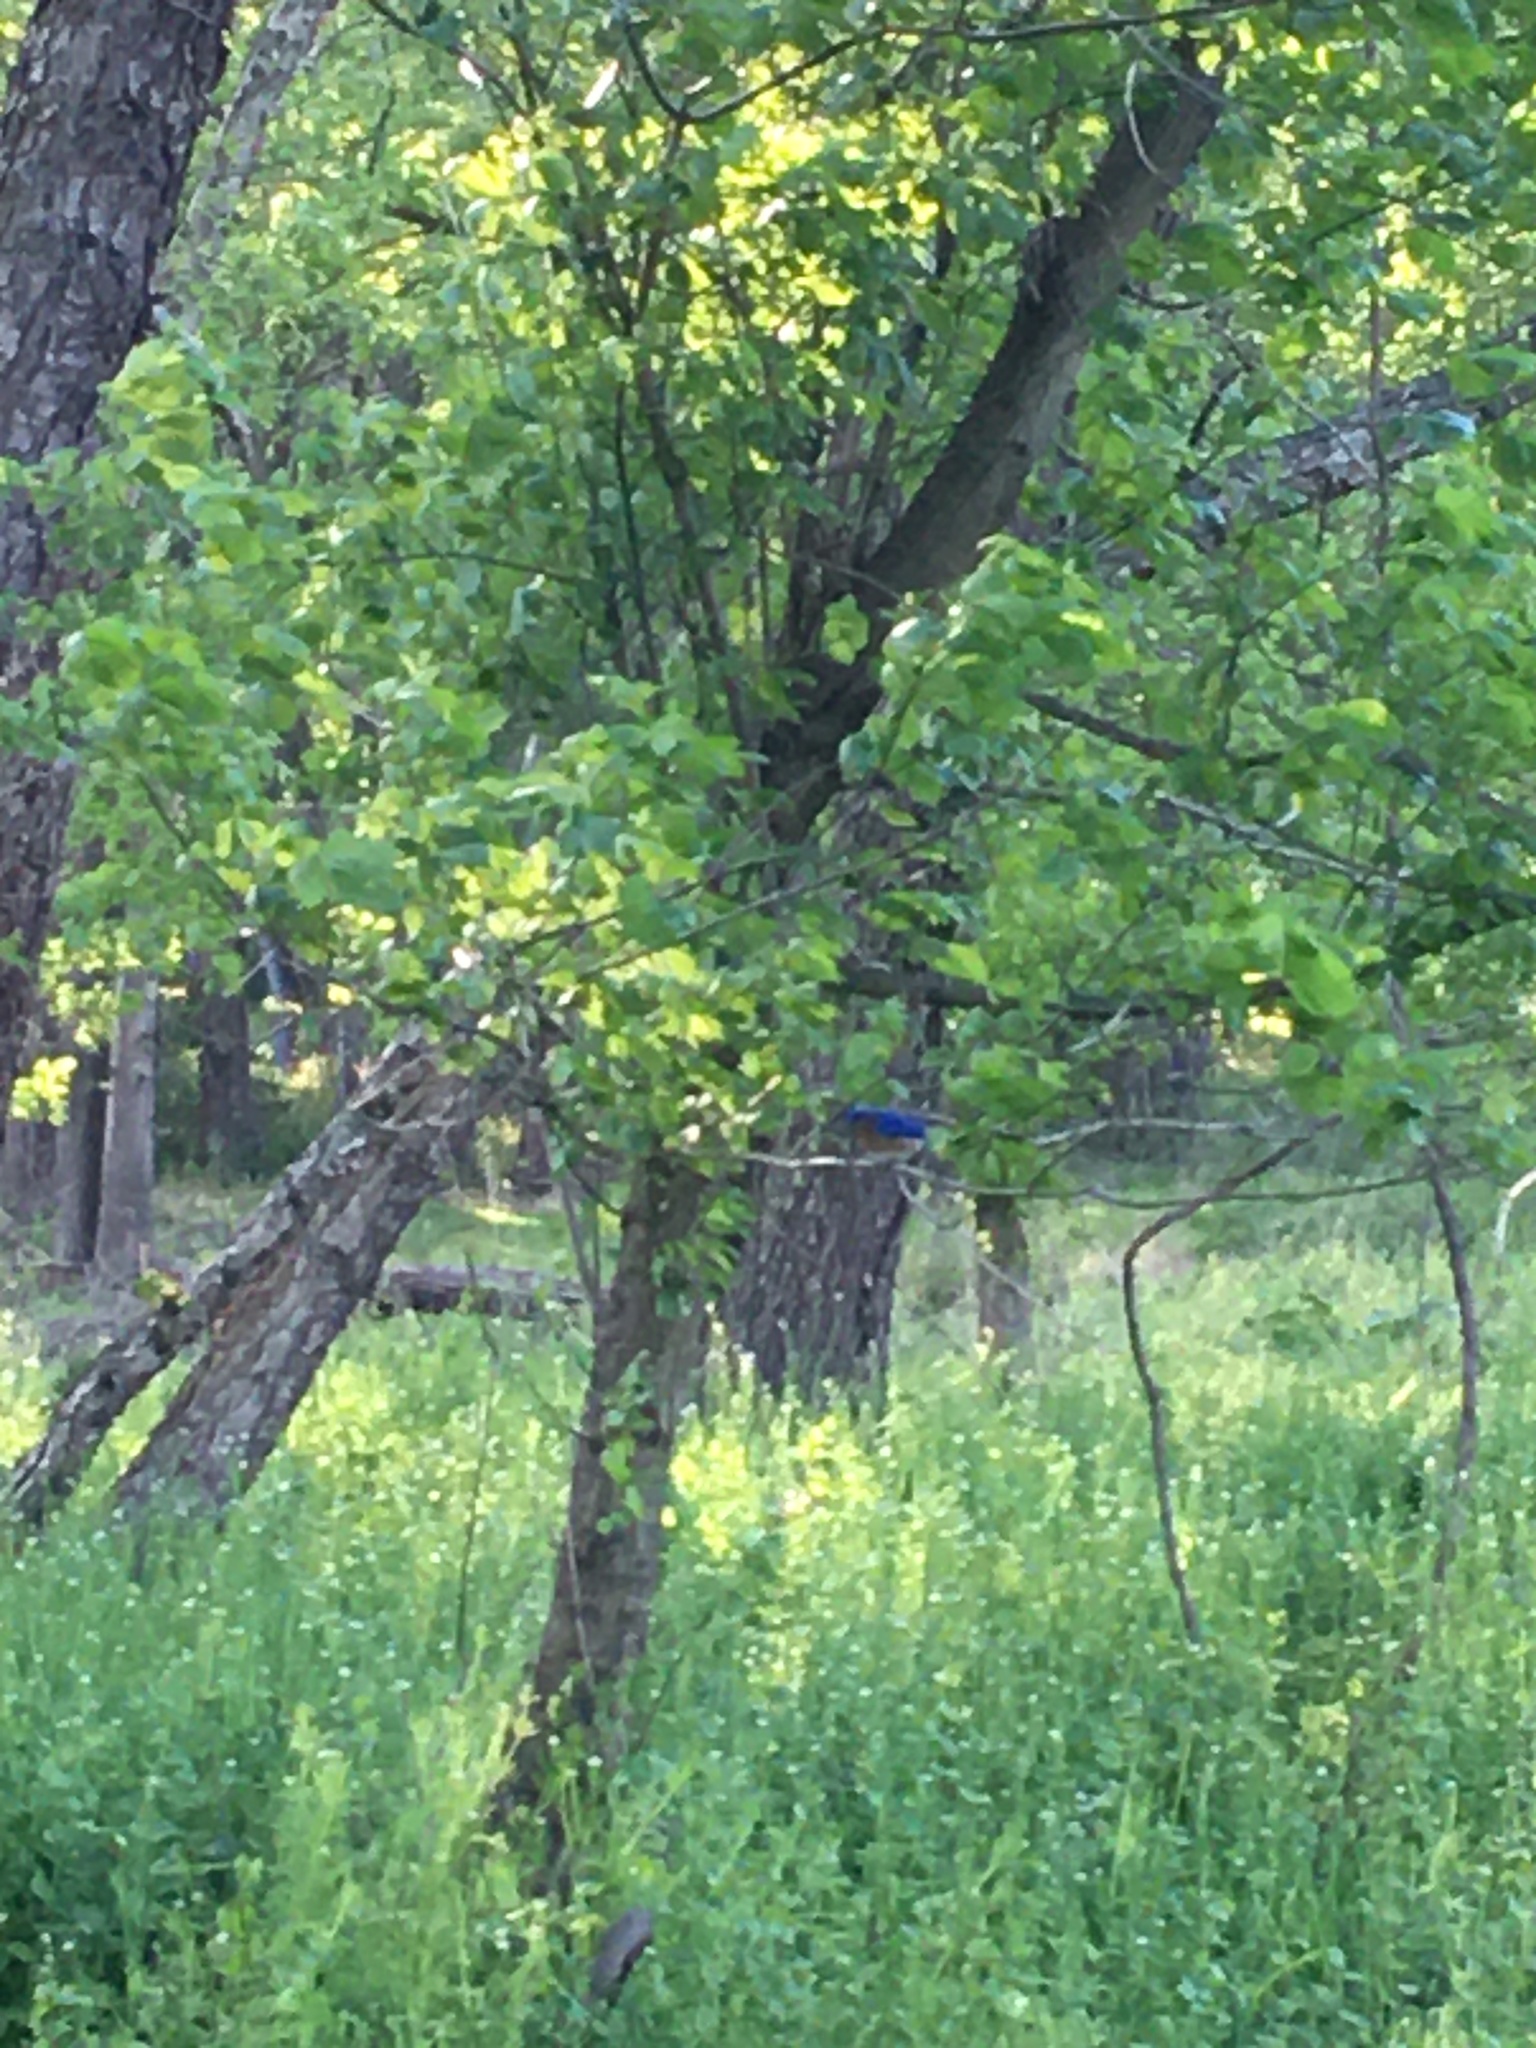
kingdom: Animalia
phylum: Chordata
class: Aves
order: Passeriformes
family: Turdidae
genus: Sialia
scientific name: Sialia sialis
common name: Eastern bluebird
